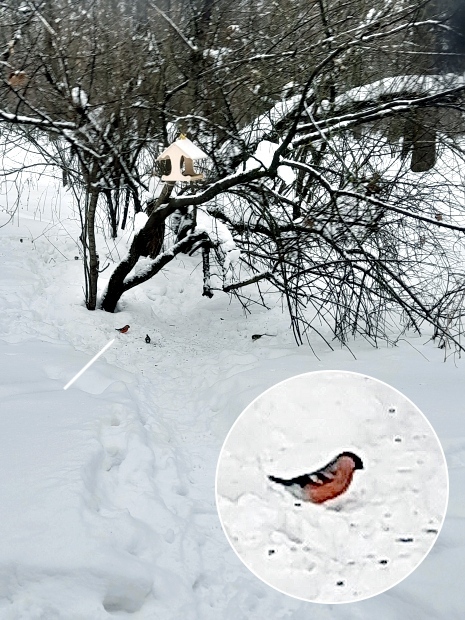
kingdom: Animalia
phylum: Chordata
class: Aves
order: Passeriformes
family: Fringillidae
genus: Pyrrhula
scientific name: Pyrrhula pyrrhula
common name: Eurasian bullfinch
